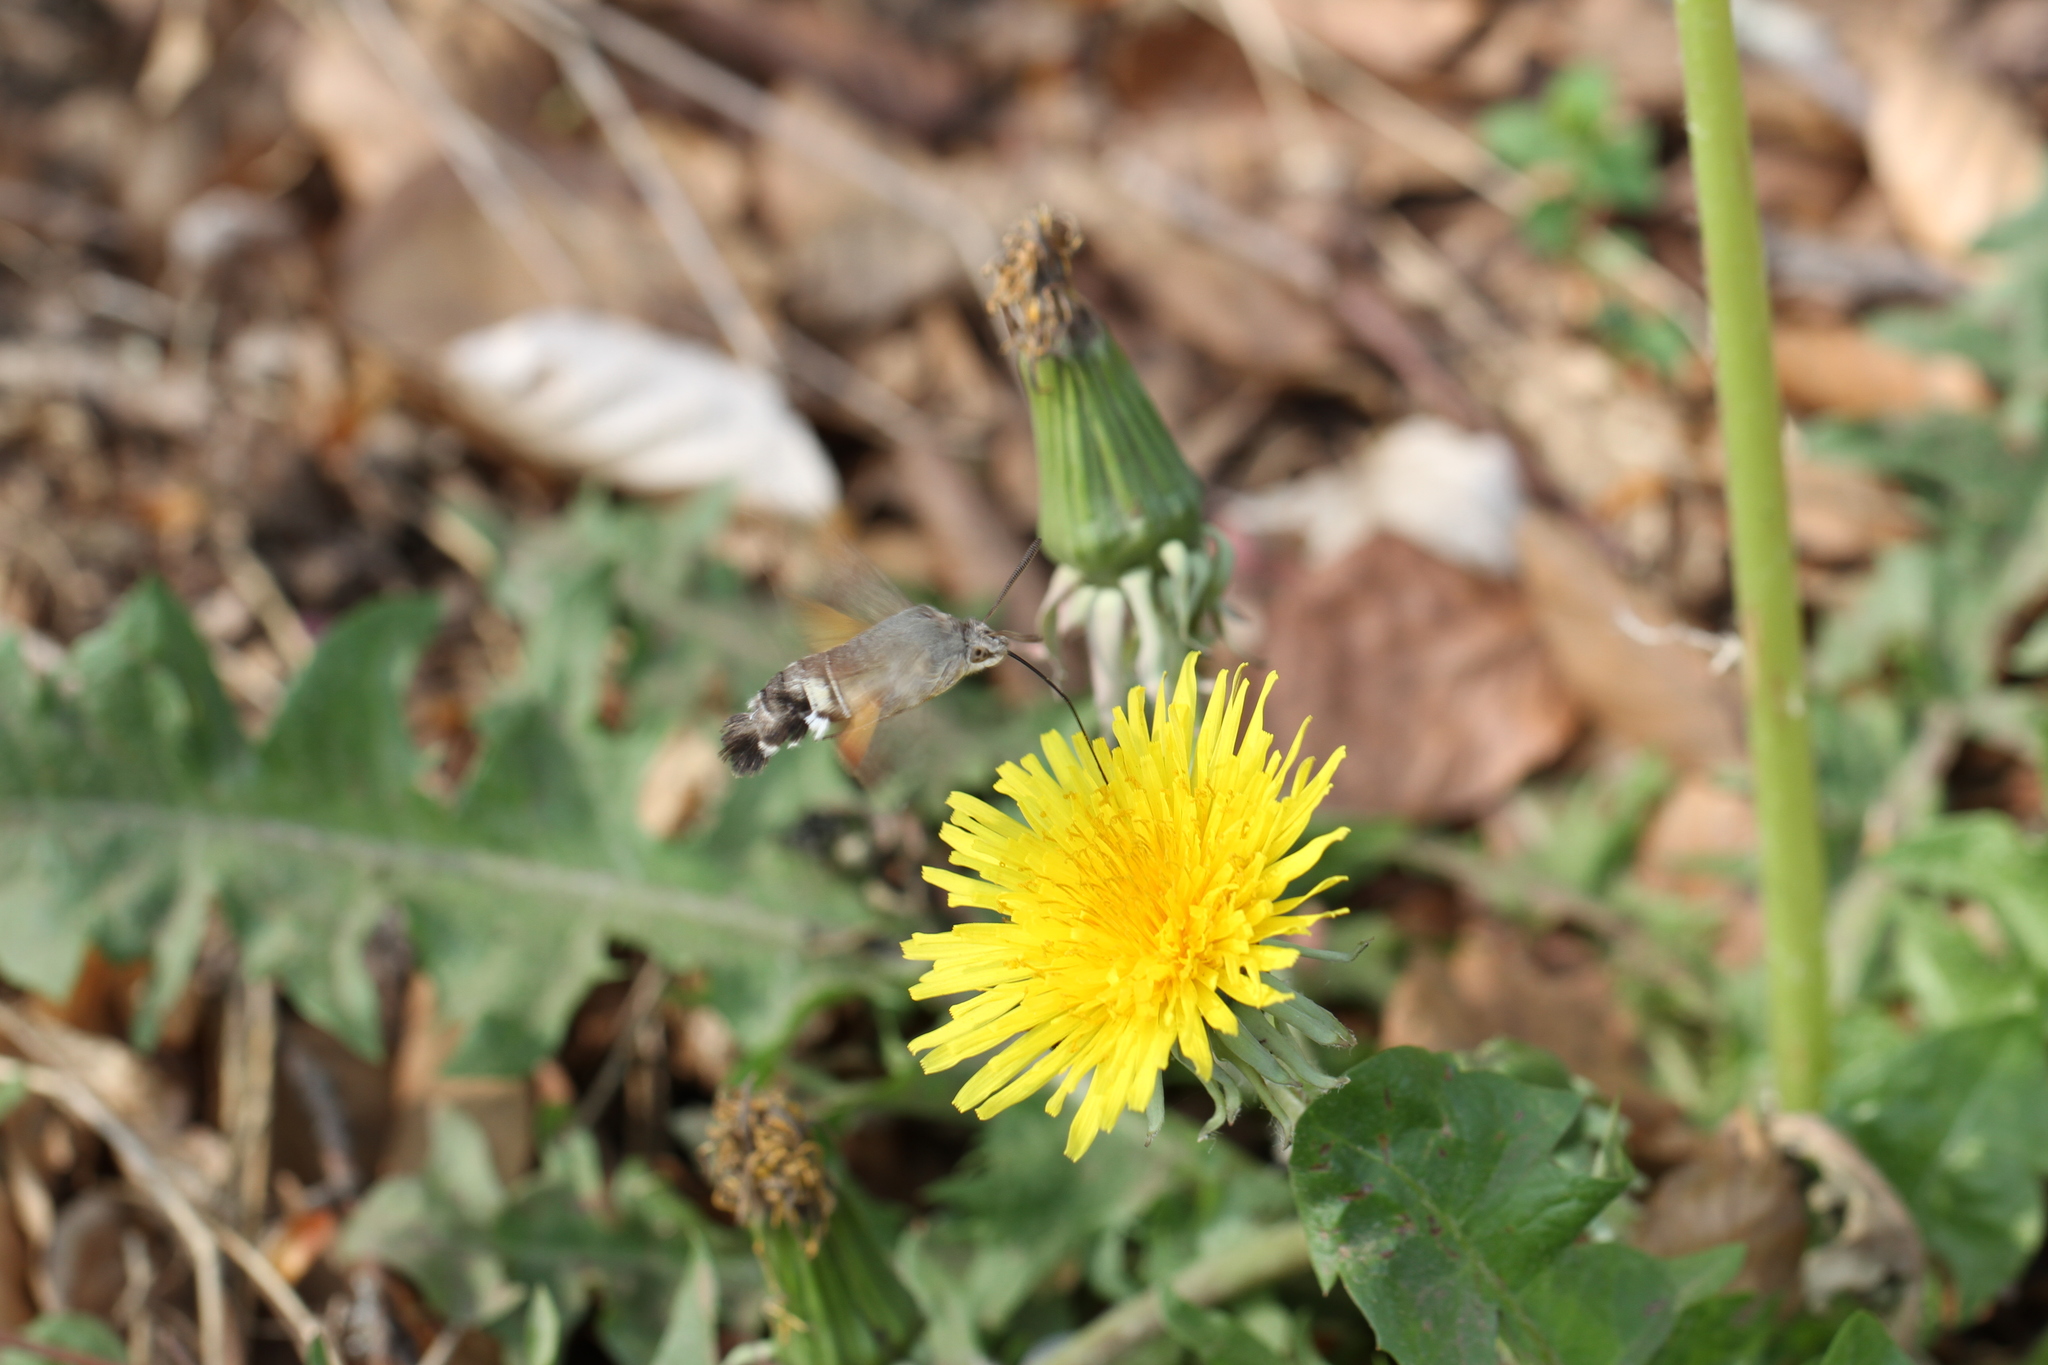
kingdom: Animalia
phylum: Arthropoda
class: Insecta
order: Lepidoptera
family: Sphingidae
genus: Macroglossum
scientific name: Macroglossum stellatarum
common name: Humming-bird hawk-moth
